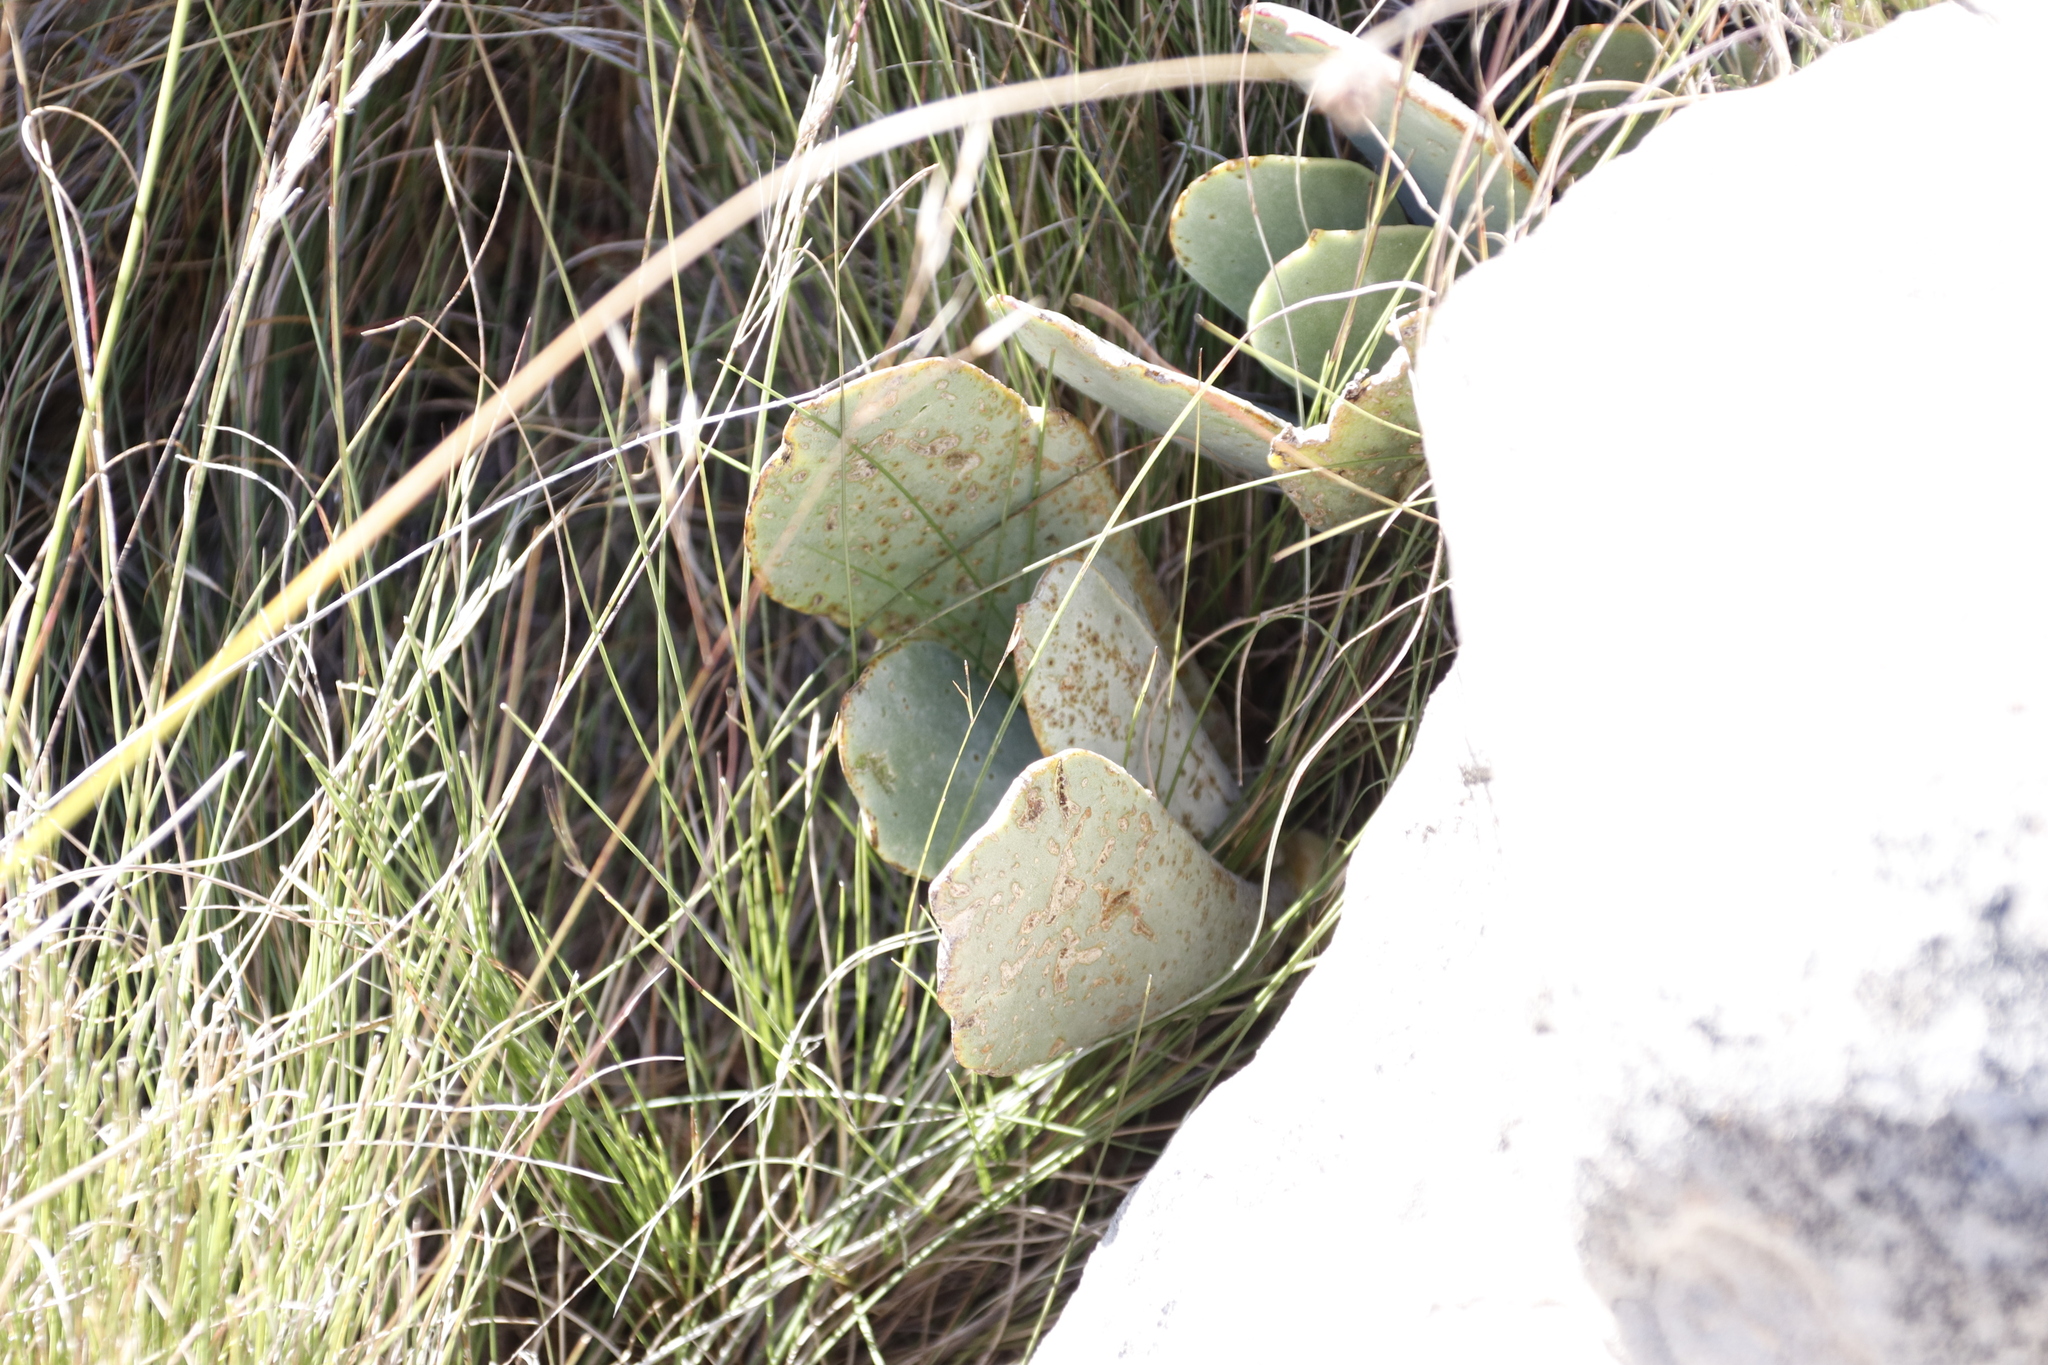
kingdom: Plantae
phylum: Tracheophyta
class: Magnoliopsida
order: Saxifragales
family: Crassulaceae
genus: Cotyledon
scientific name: Cotyledon orbiculata
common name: Pig's ear
